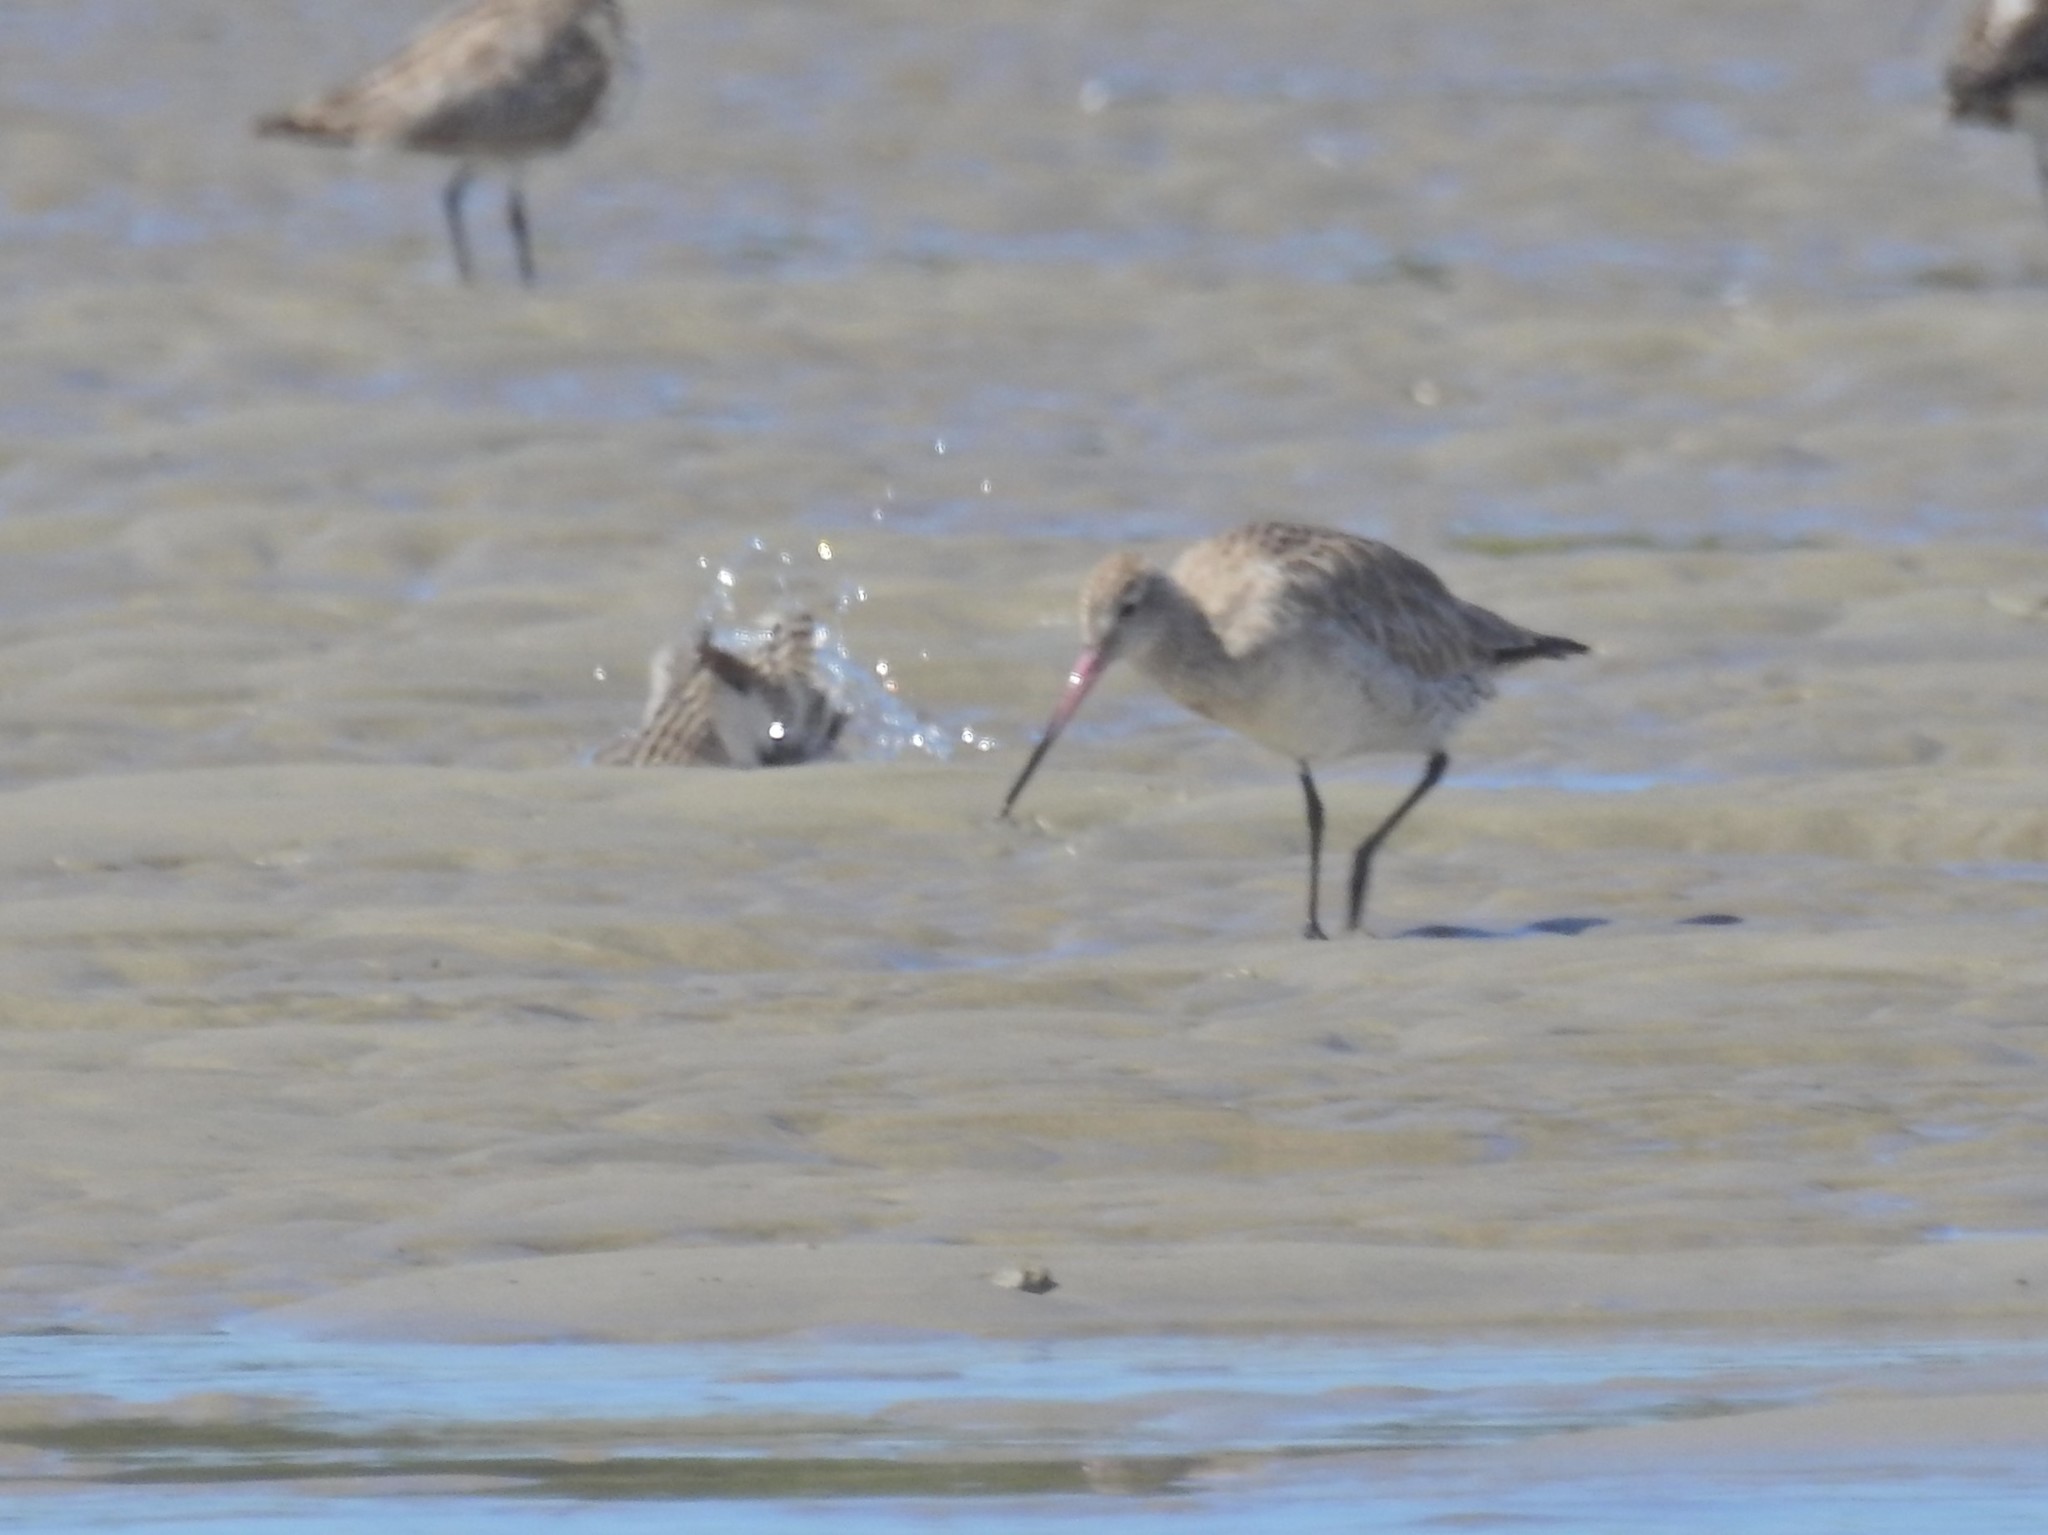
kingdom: Animalia
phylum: Chordata
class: Aves
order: Charadriiformes
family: Scolopacidae
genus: Limosa
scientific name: Limosa lapponica
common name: Bar-tailed godwit
